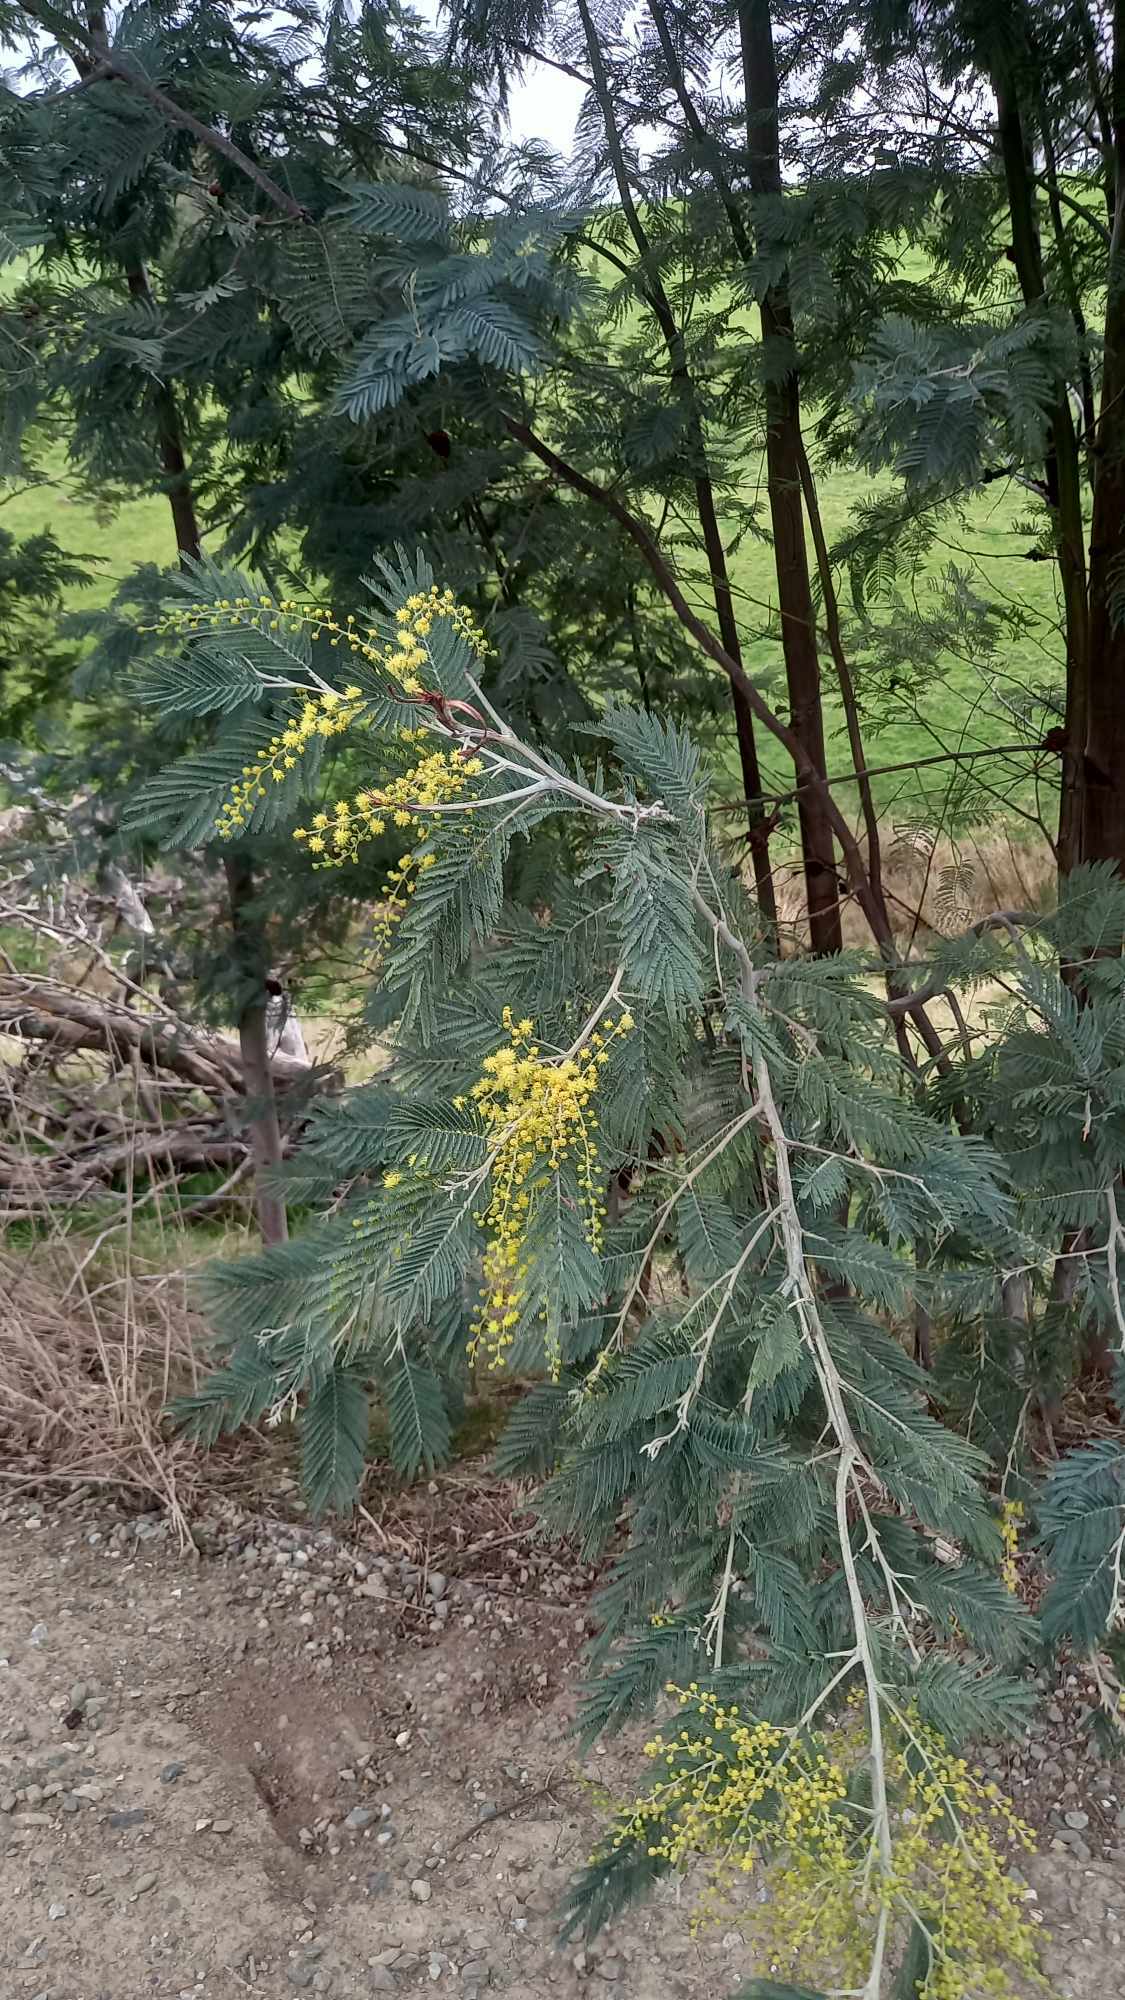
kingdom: Plantae
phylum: Tracheophyta
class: Magnoliopsida
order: Fabales
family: Fabaceae
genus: Acacia
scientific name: Acacia dealbata
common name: Silver wattle
